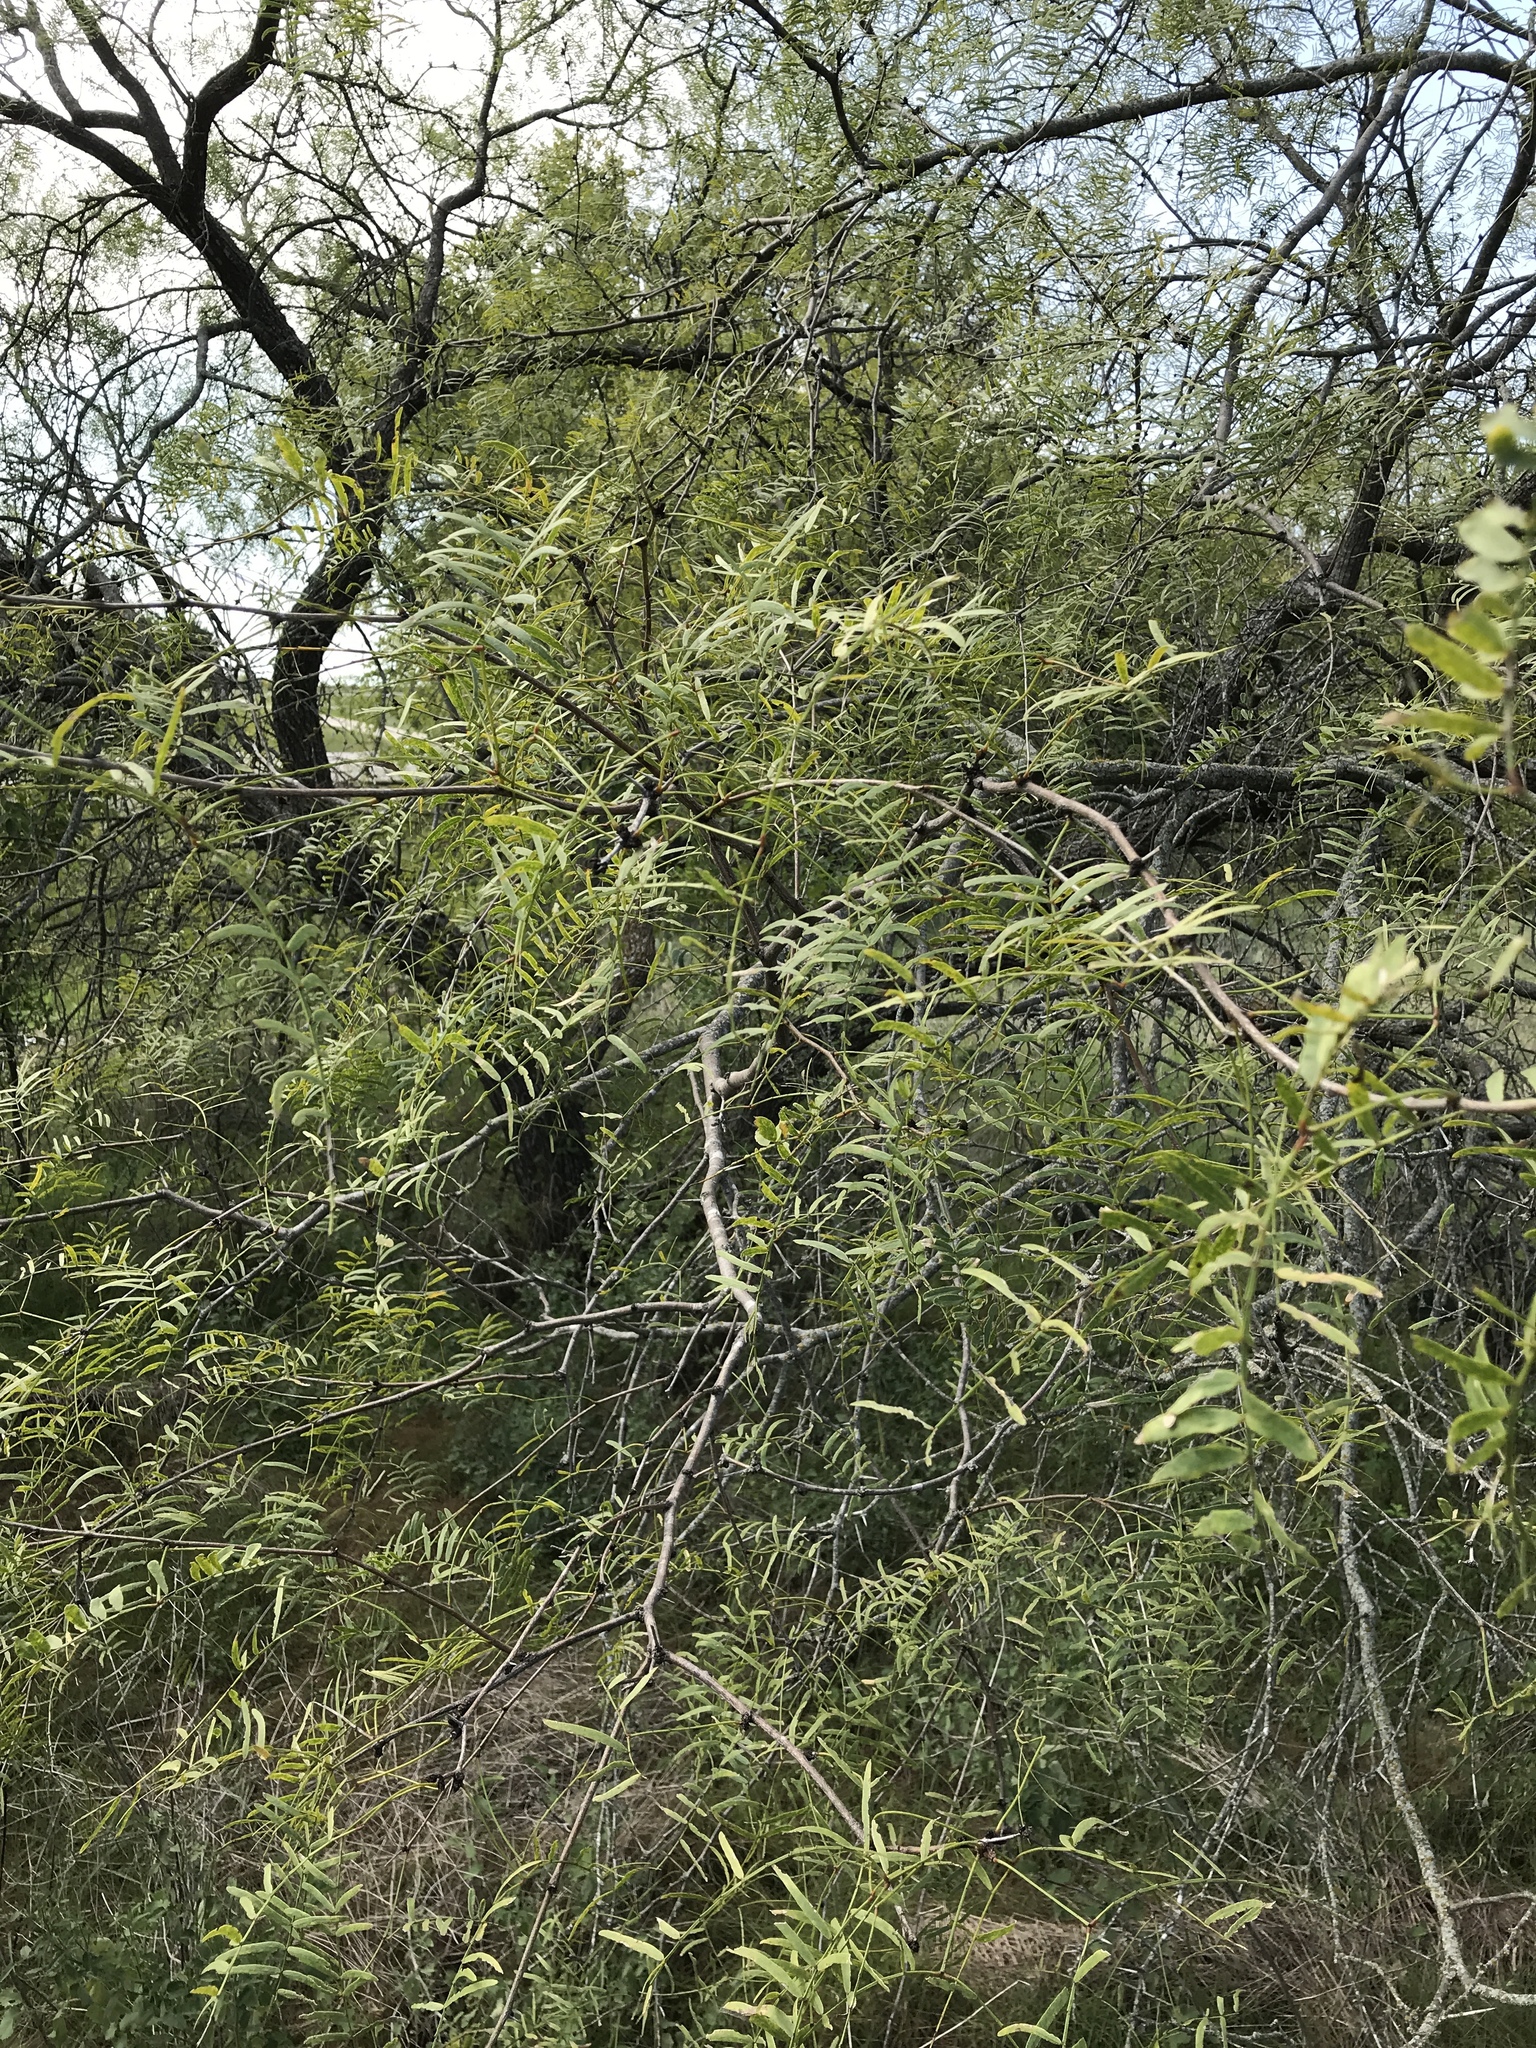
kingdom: Plantae
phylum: Tracheophyta
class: Magnoliopsida
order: Fabales
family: Fabaceae
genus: Prosopis
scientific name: Prosopis glandulosa
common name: Honey mesquite
